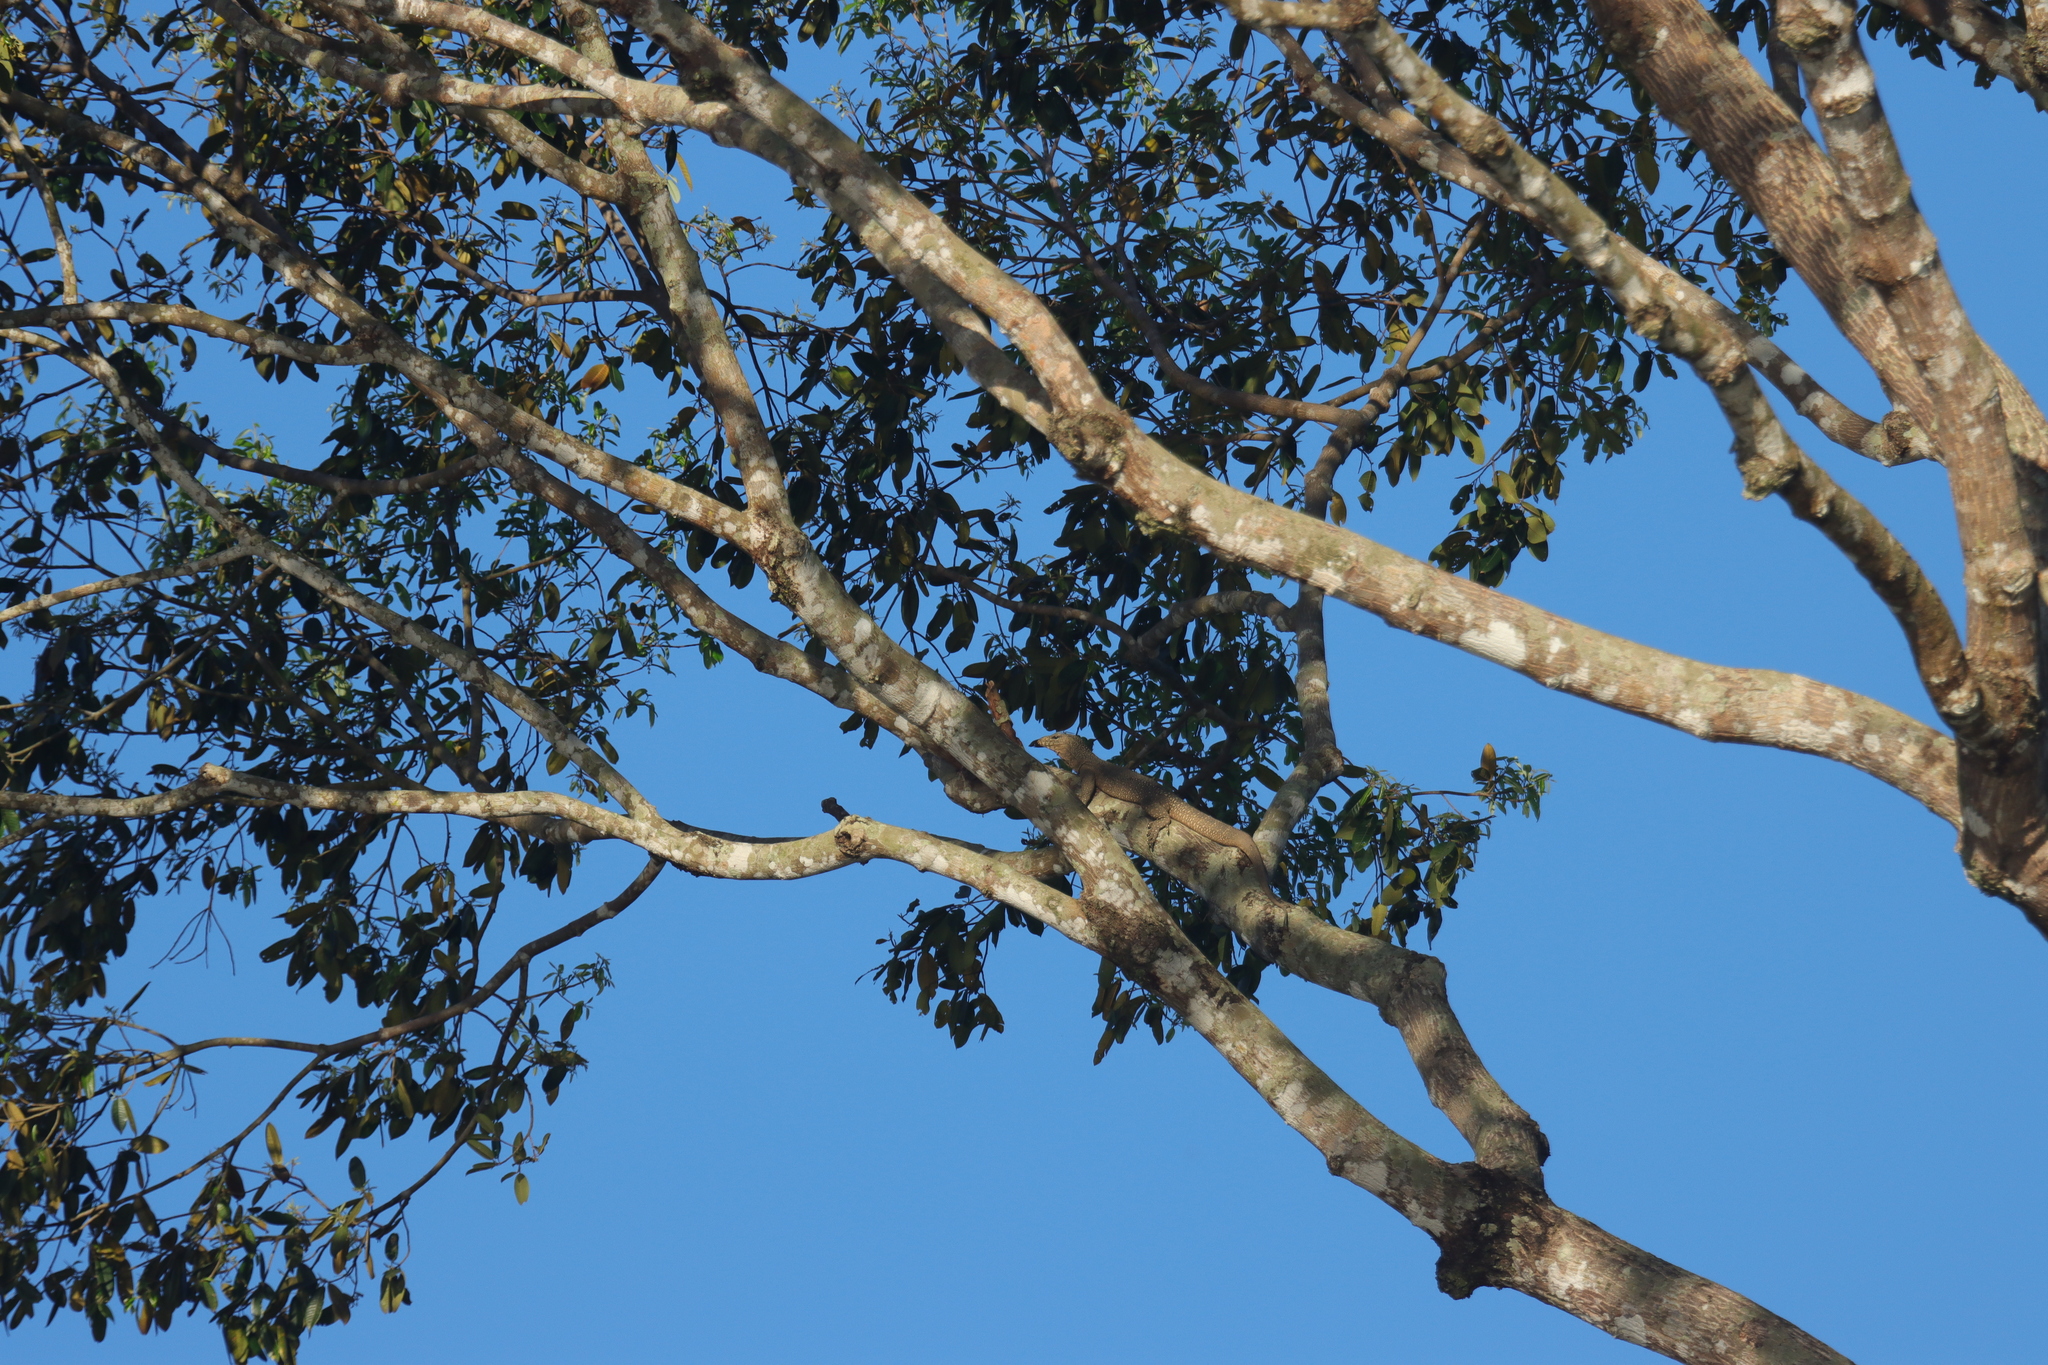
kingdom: Animalia
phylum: Chordata
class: Squamata
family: Varanidae
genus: Varanus
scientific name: Varanus nebulosus
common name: Clouded monitor
